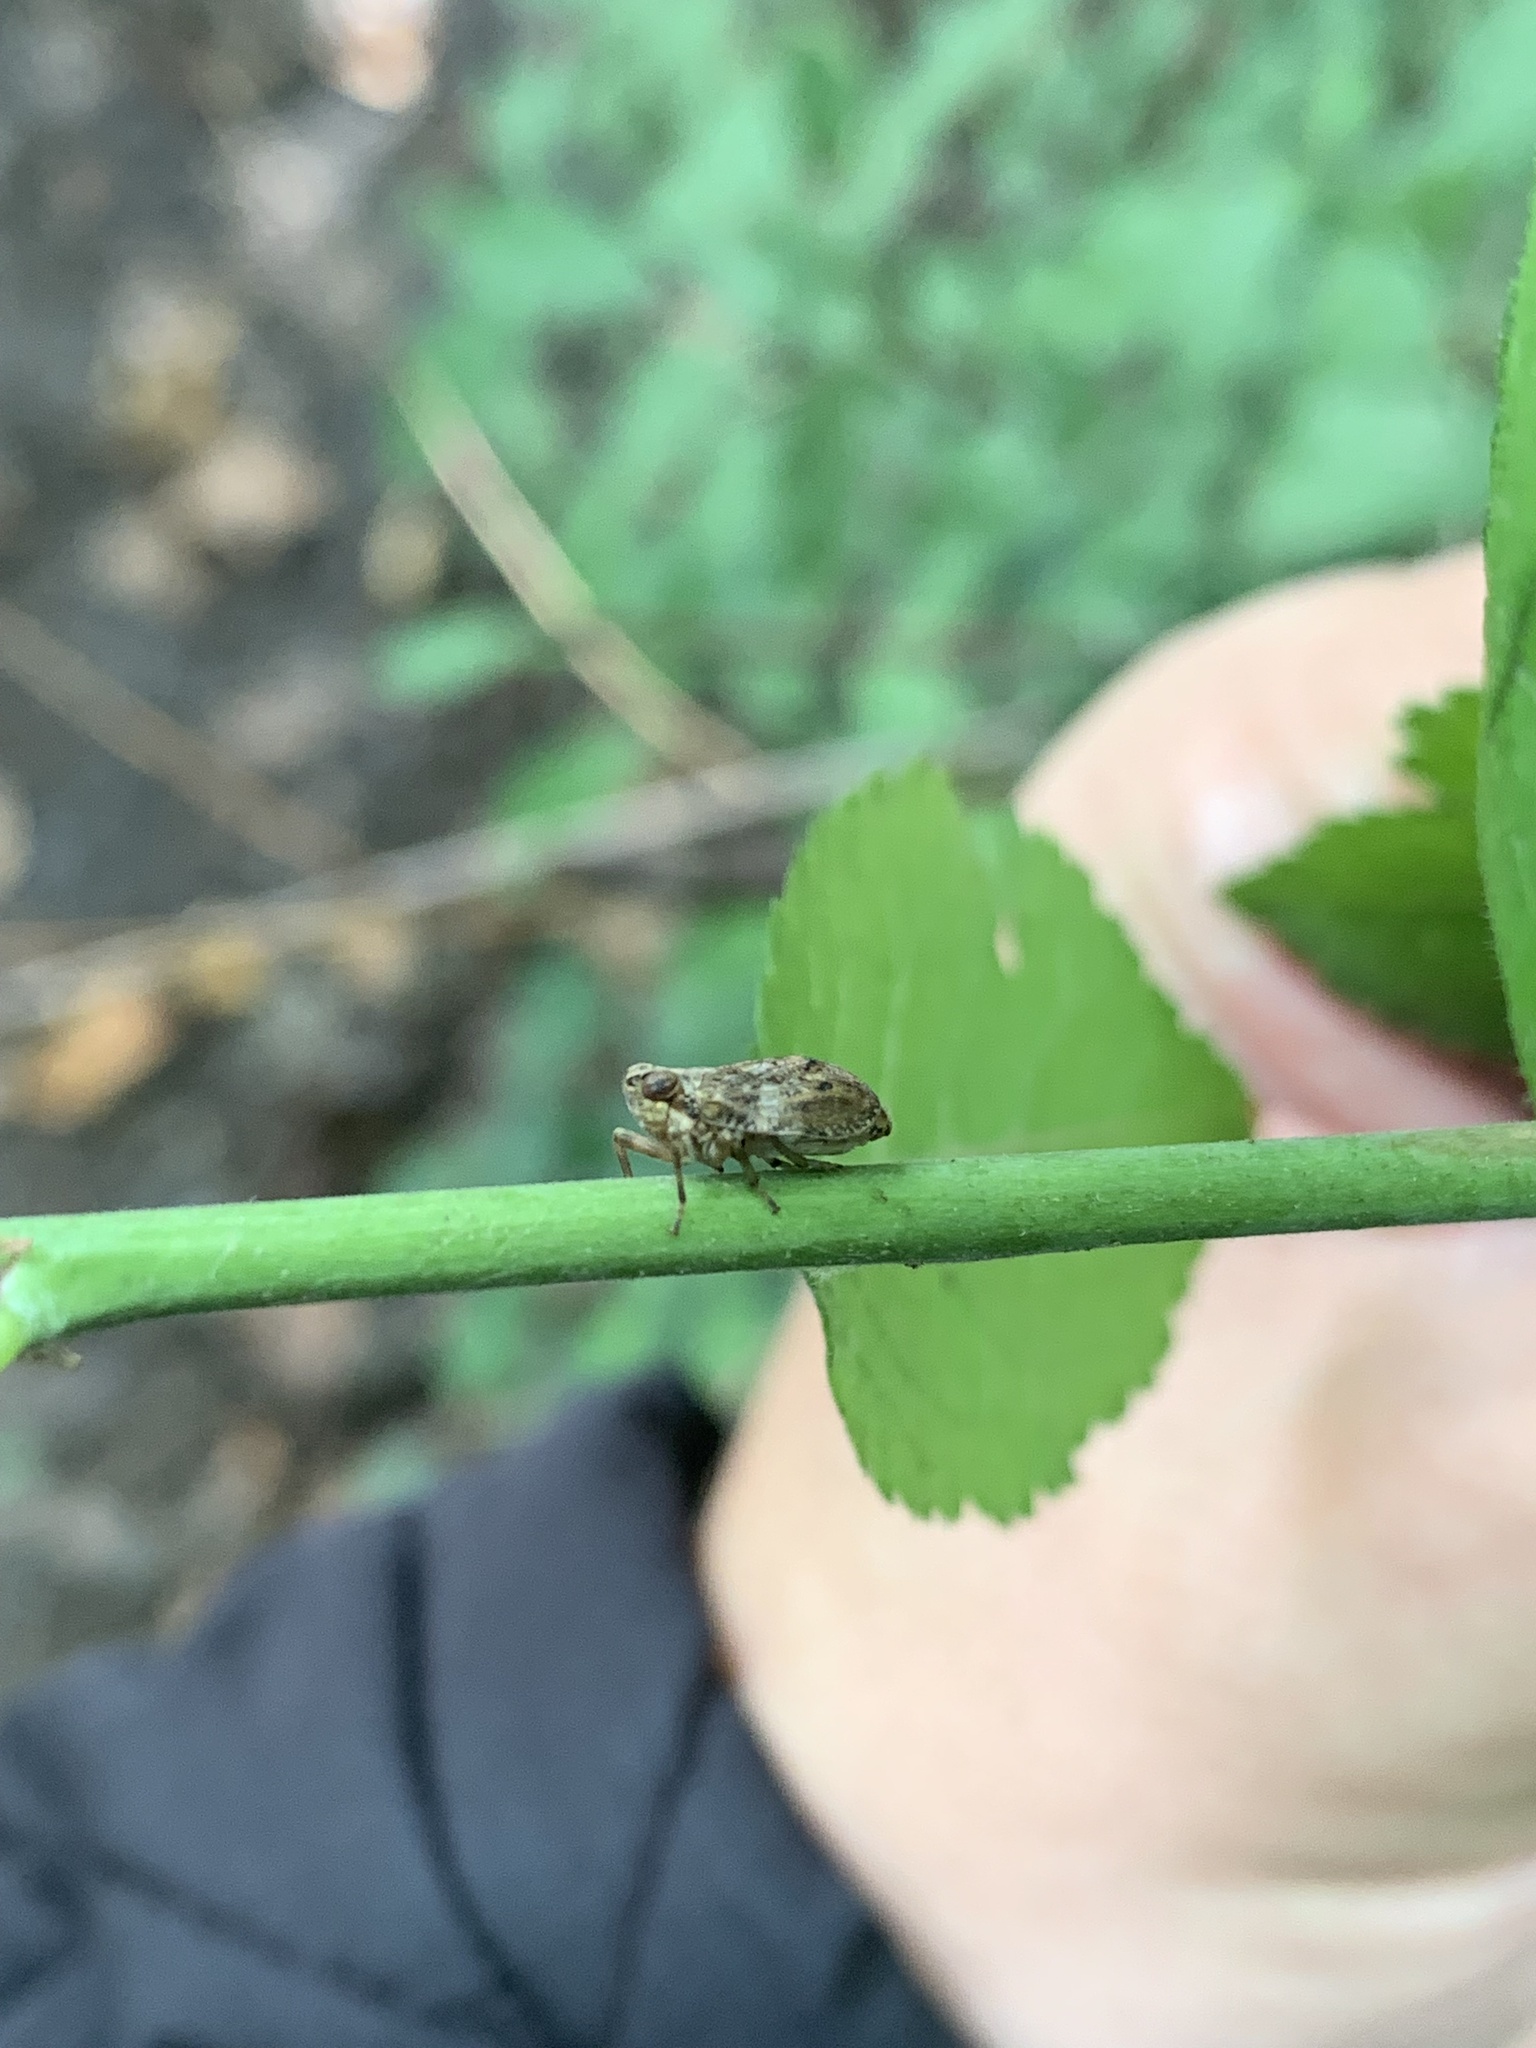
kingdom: Animalia
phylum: Arthropoda
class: Insecta
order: Hemiptera
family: Issidae
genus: Issus
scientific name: Issus coleoptratus
